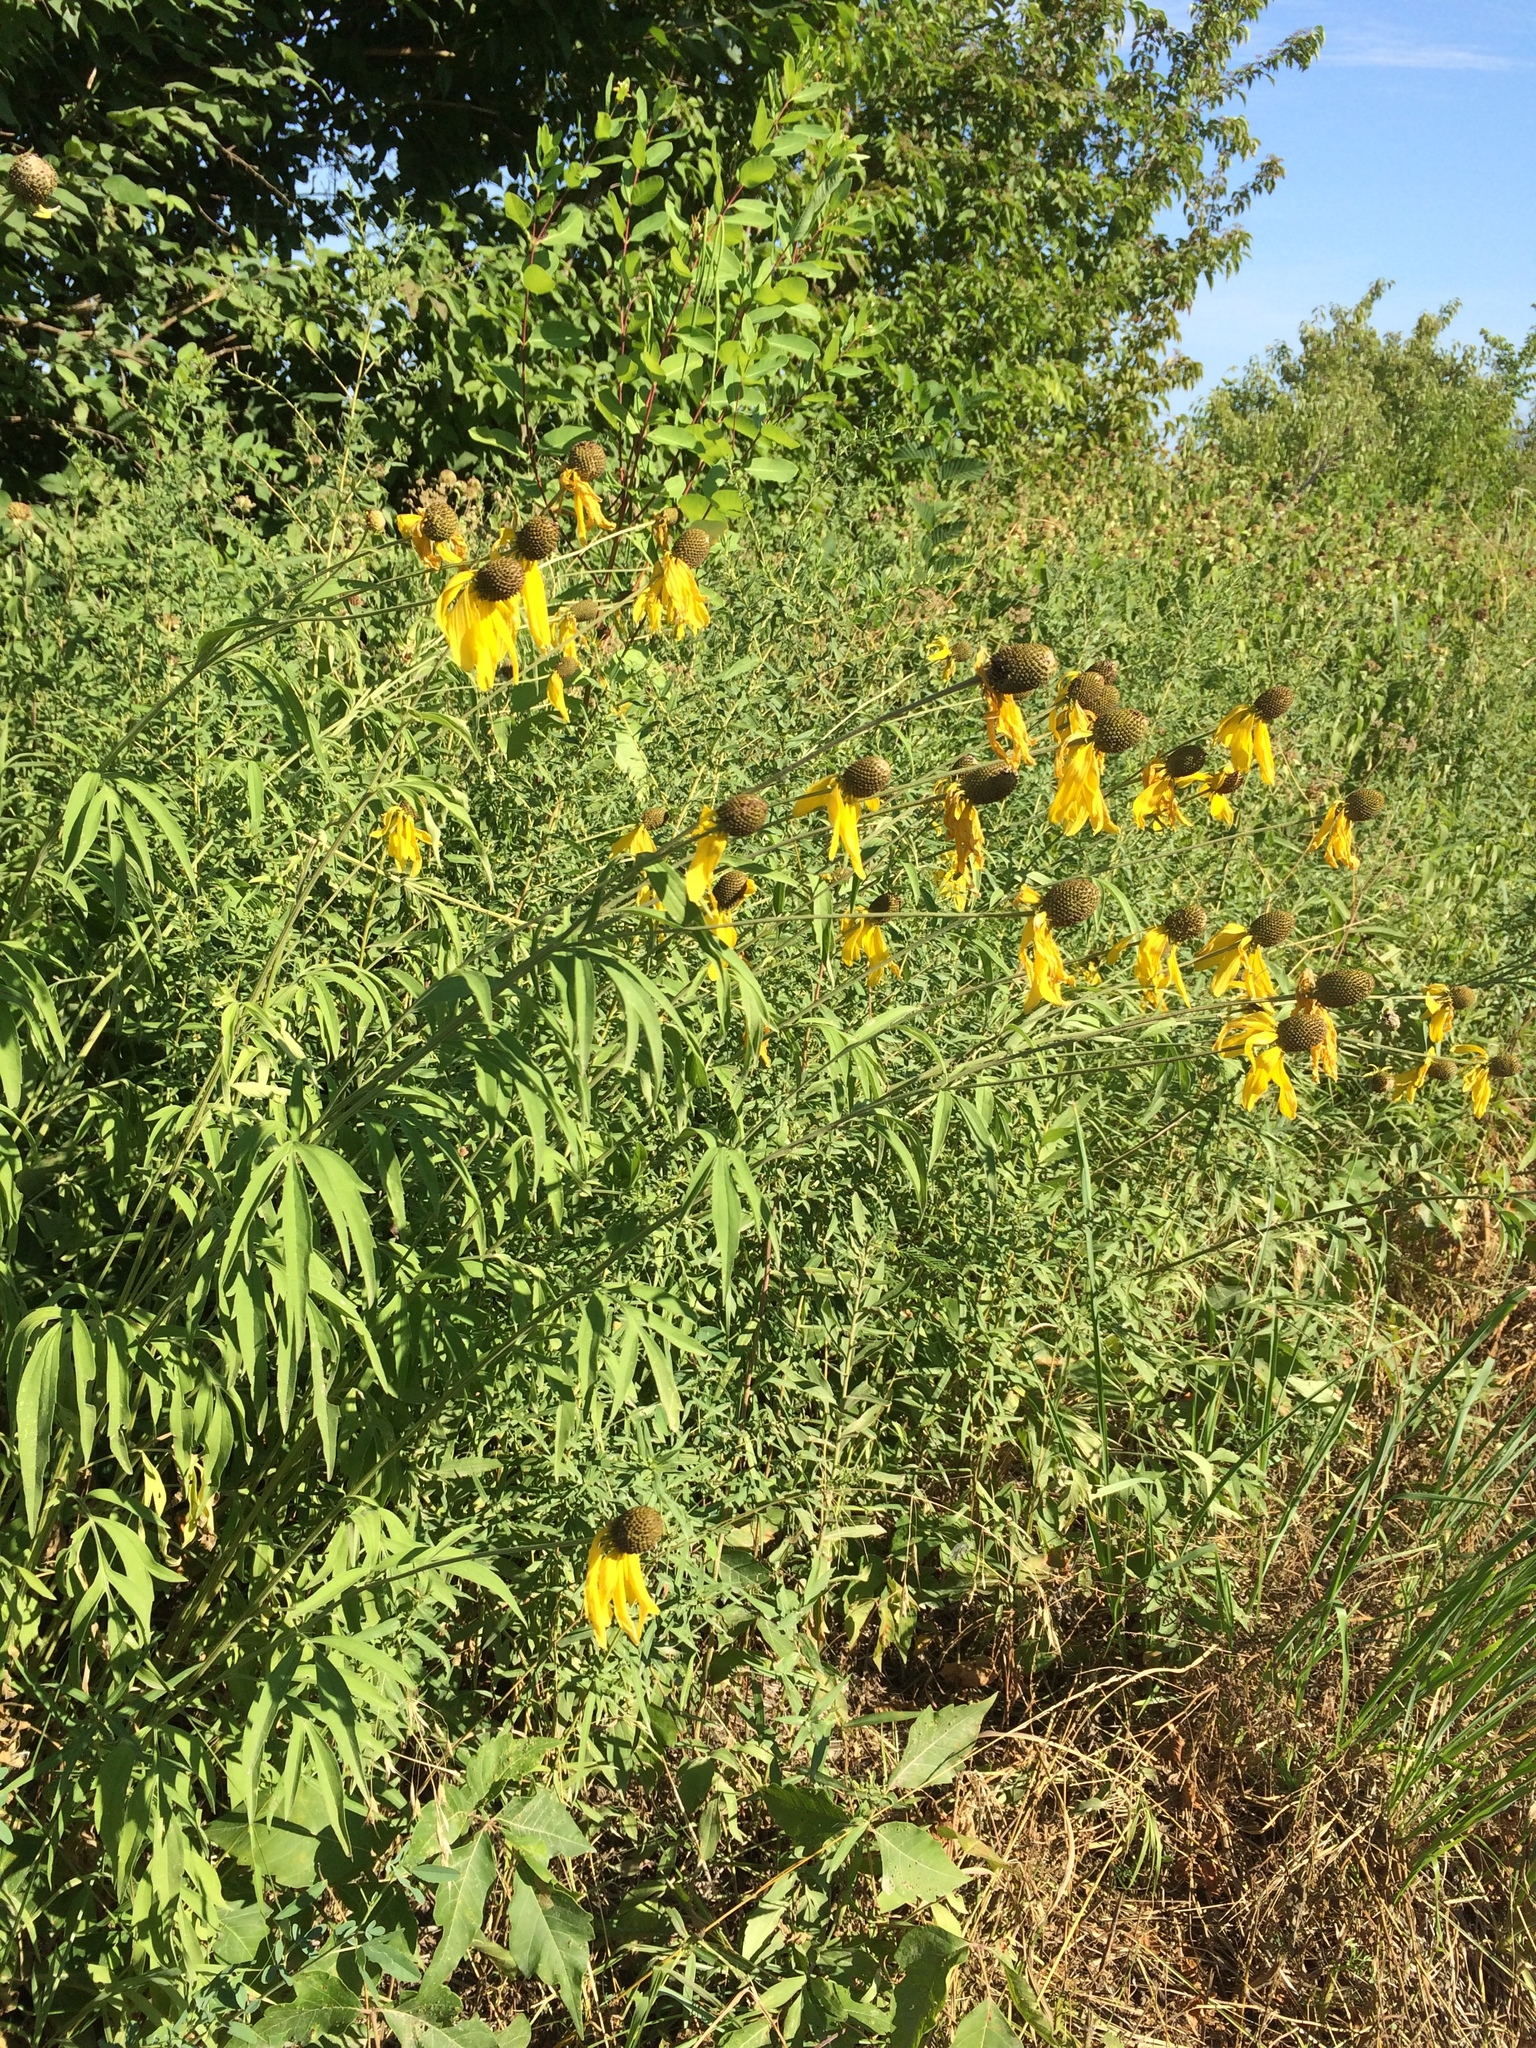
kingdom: Plantae
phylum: Tracheophyta
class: Magnoliopsida
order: Asterales
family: Asteraceae
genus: Ratibida
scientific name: Ratibida pinnata
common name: Drooping prairie-coneflower
